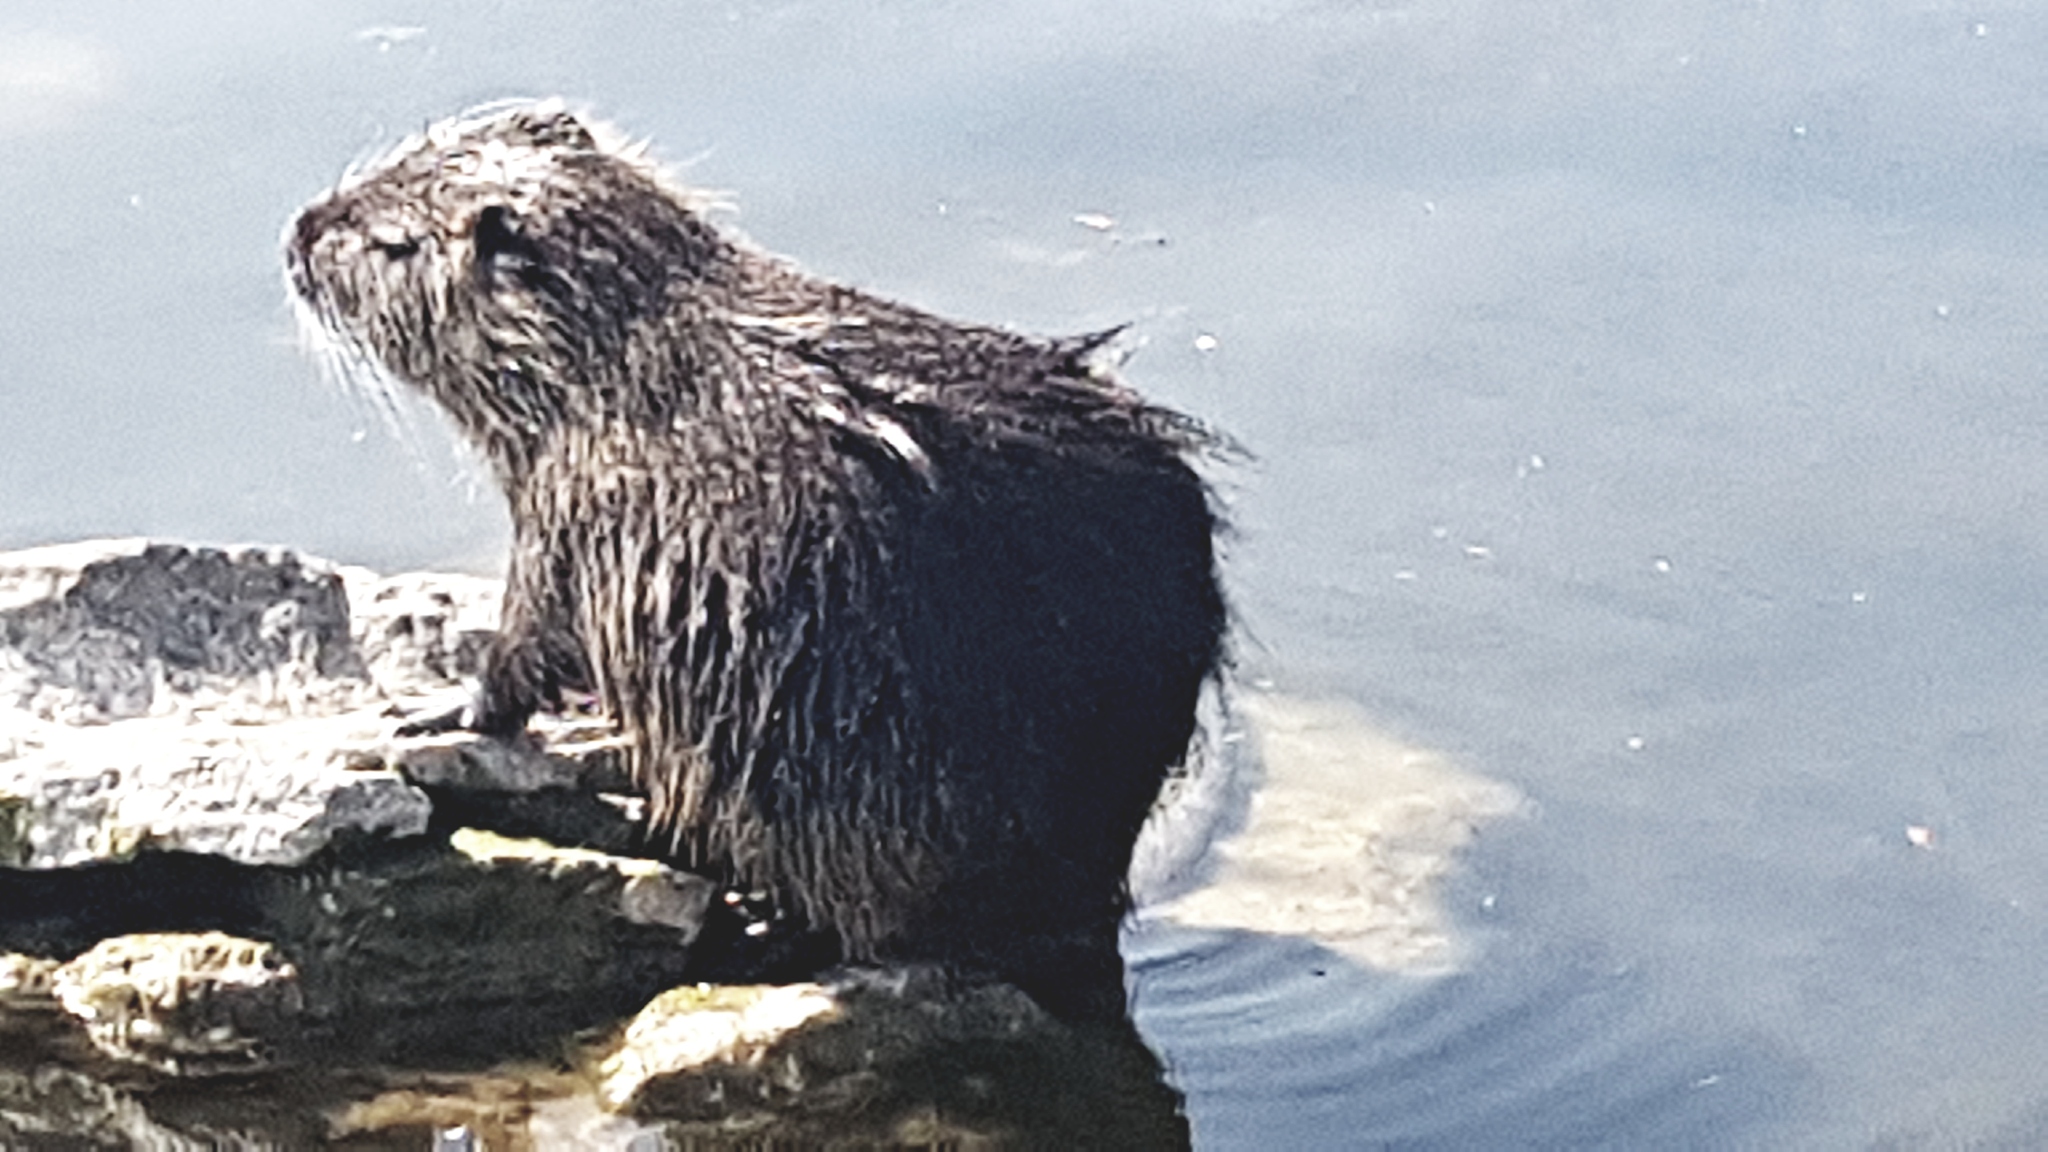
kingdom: Animalia
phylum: Chordata
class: Mammalia
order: Rodentia
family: Myocastoridae
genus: Myocastor
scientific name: Myocastor coypus
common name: Coypu
